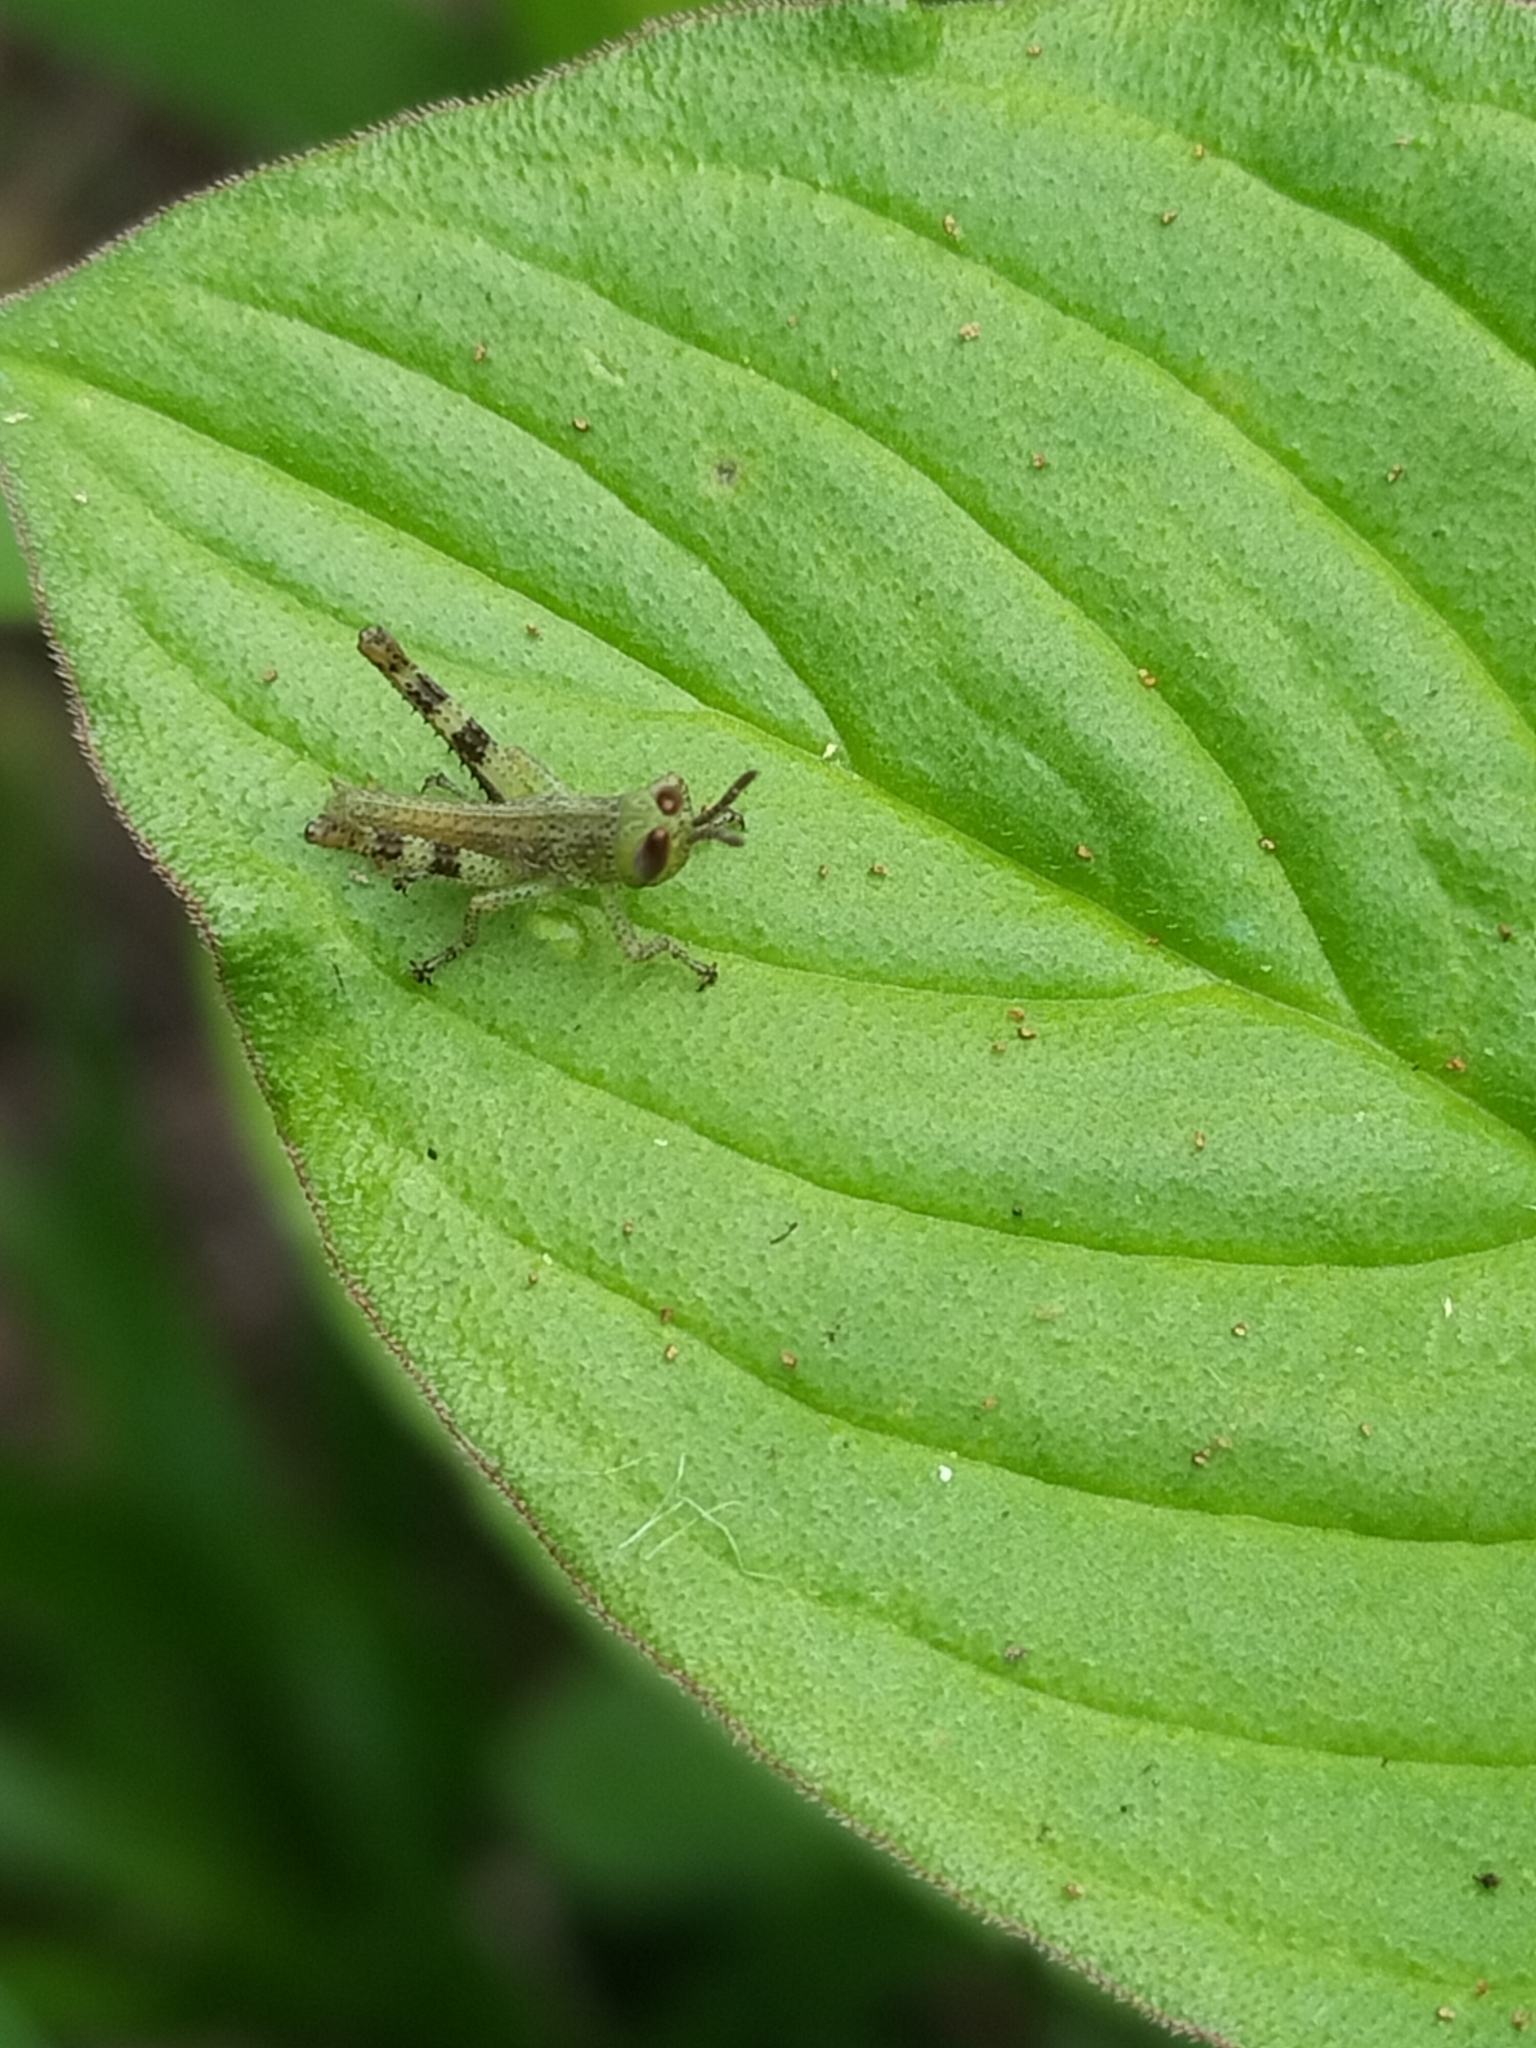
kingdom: Animalia
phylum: Arthropoda
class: Insecta
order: Orthoptera
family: Acrididae
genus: Valanga
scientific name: Valanga irregularis
